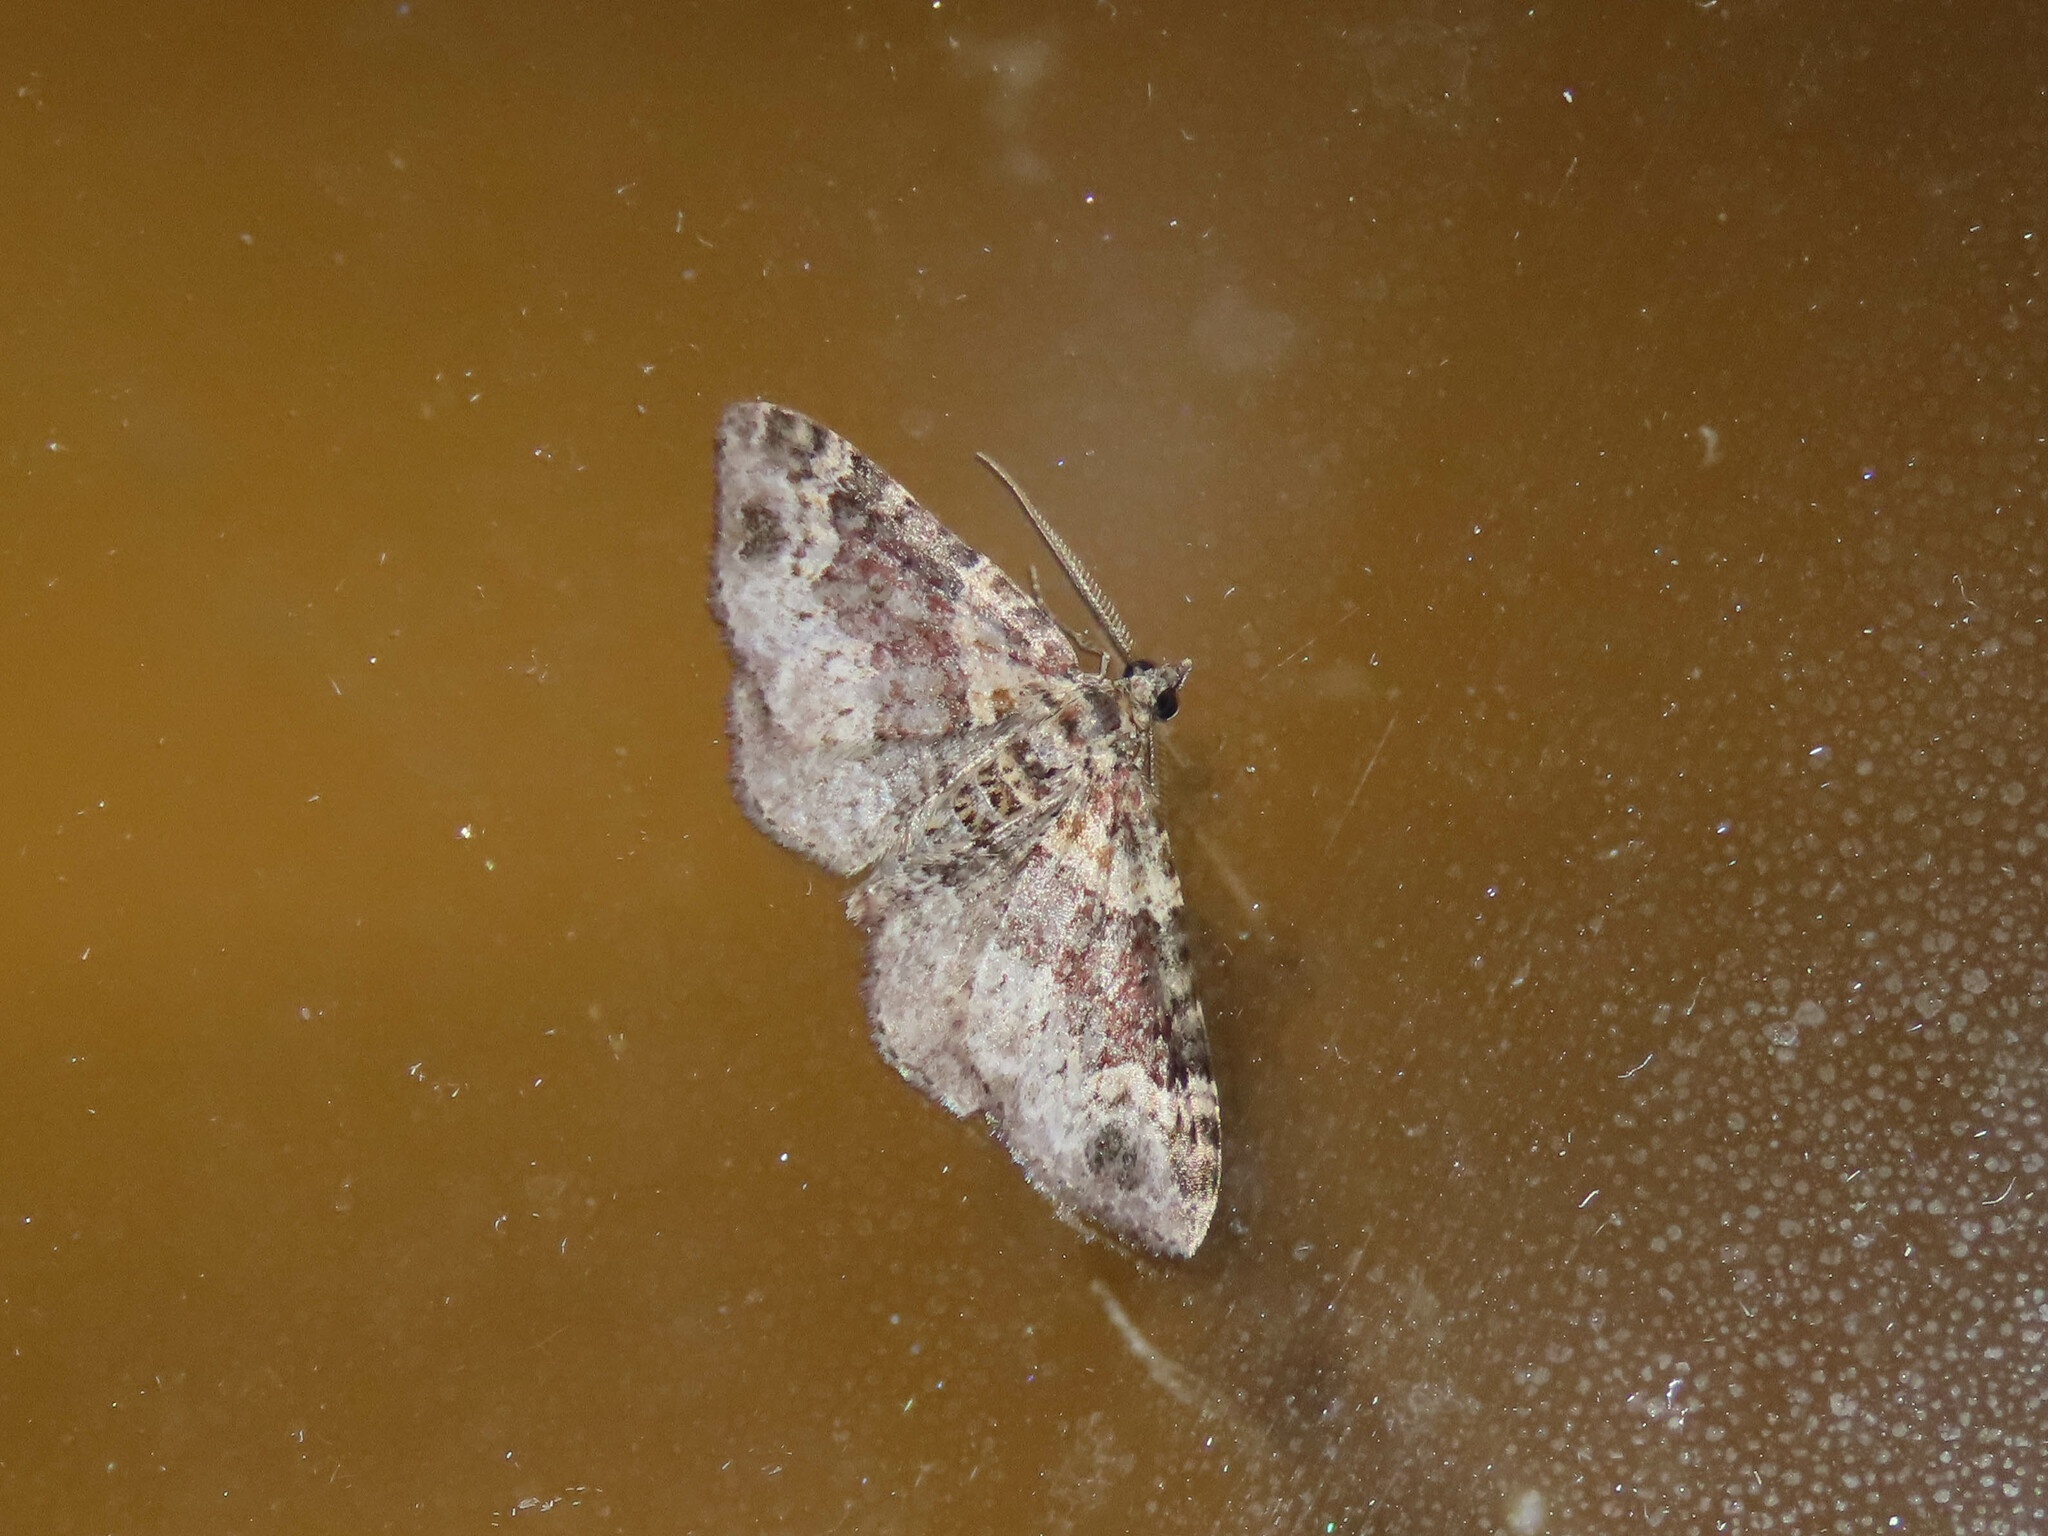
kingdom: Animalia
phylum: Arthropoda
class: Insecta
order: Lepidoptera
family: Geometridae
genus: Xanthorhoe
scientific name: Xanthorhoe ferrugata
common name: Dark-barred twin-spot carpet
